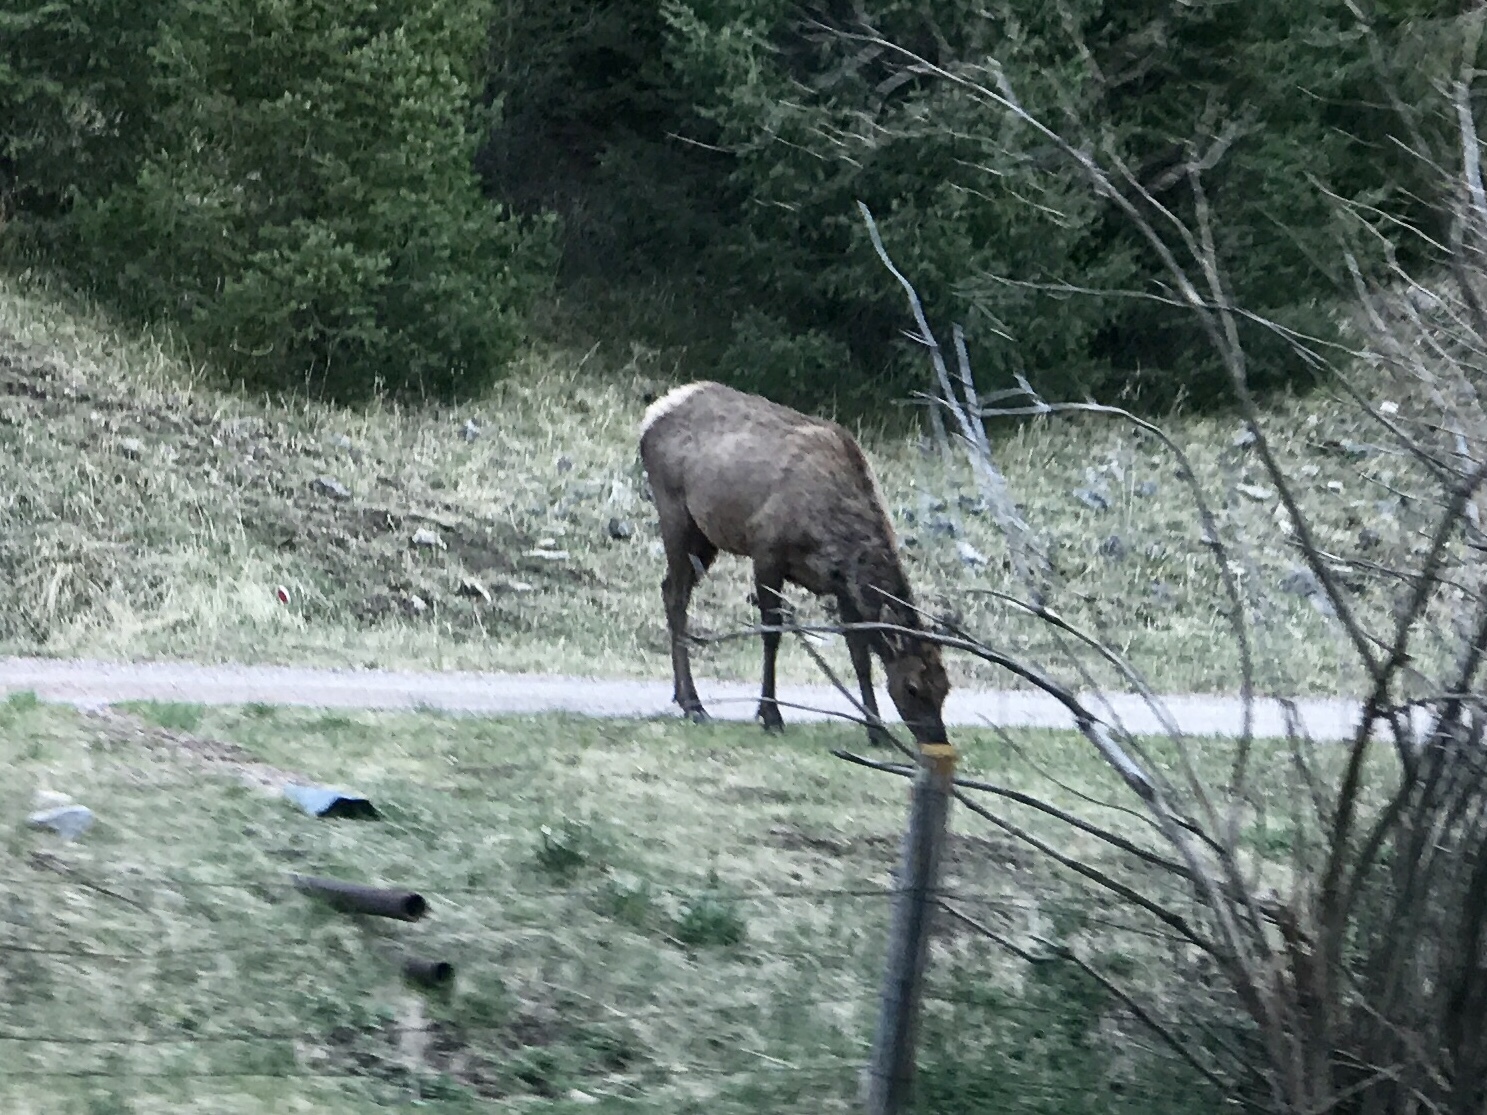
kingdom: Animalia
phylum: Chordata
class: Mammalia
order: Artiodactyla
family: Cervidae
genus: Cervus
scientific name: Cervus elaphus
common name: Red deer
